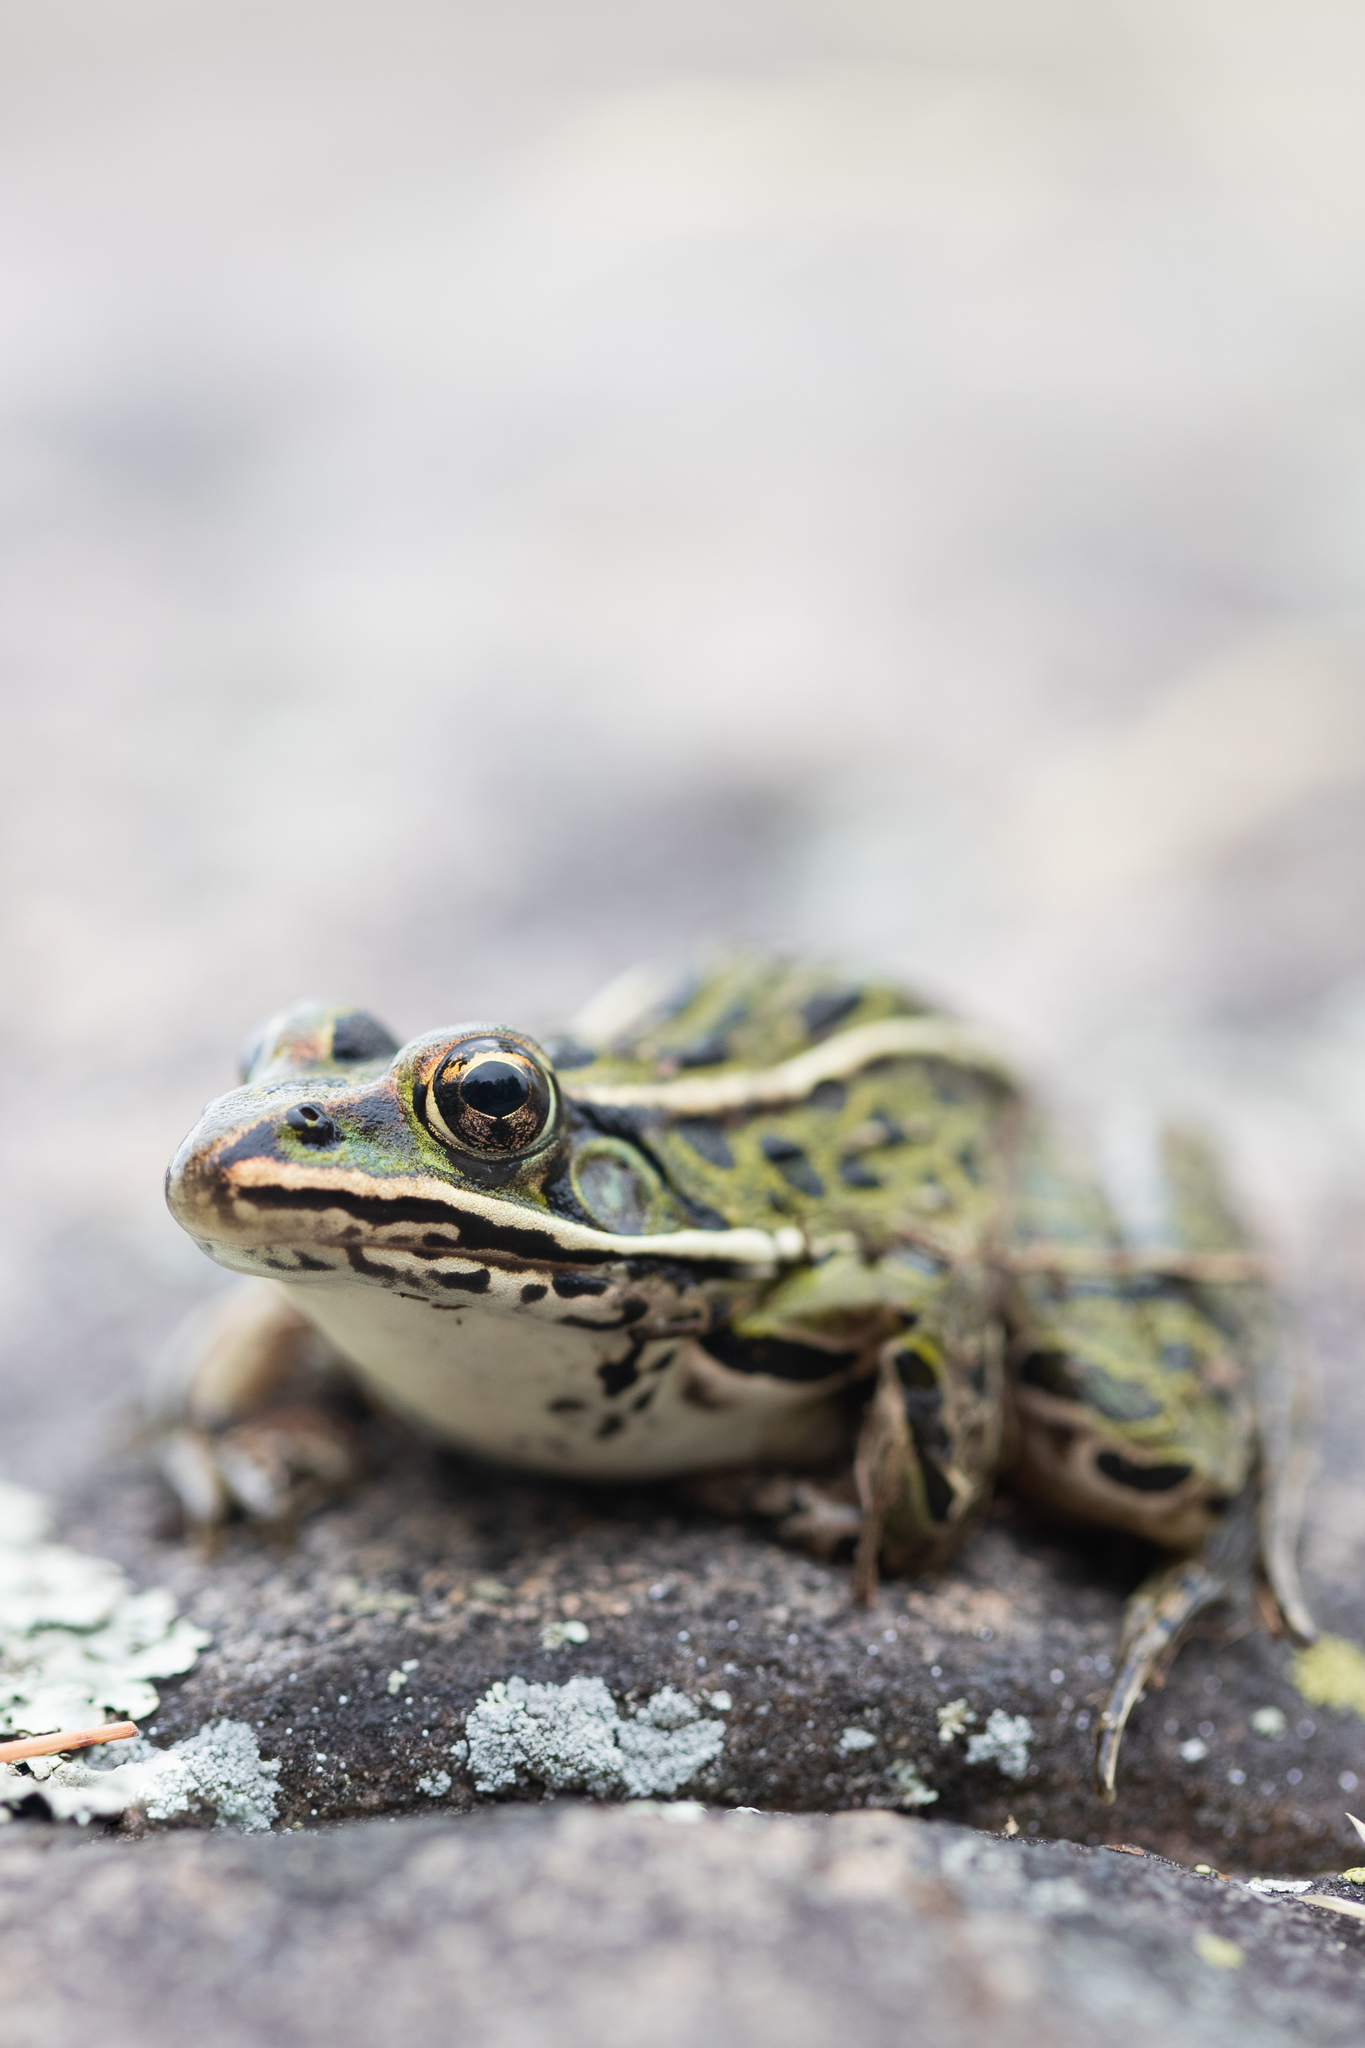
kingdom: Animalia
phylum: Chordata
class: Amphibia
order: Anura
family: Ranidae
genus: Lithobates
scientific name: Lithobates pipiens
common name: Northern leopard frog
